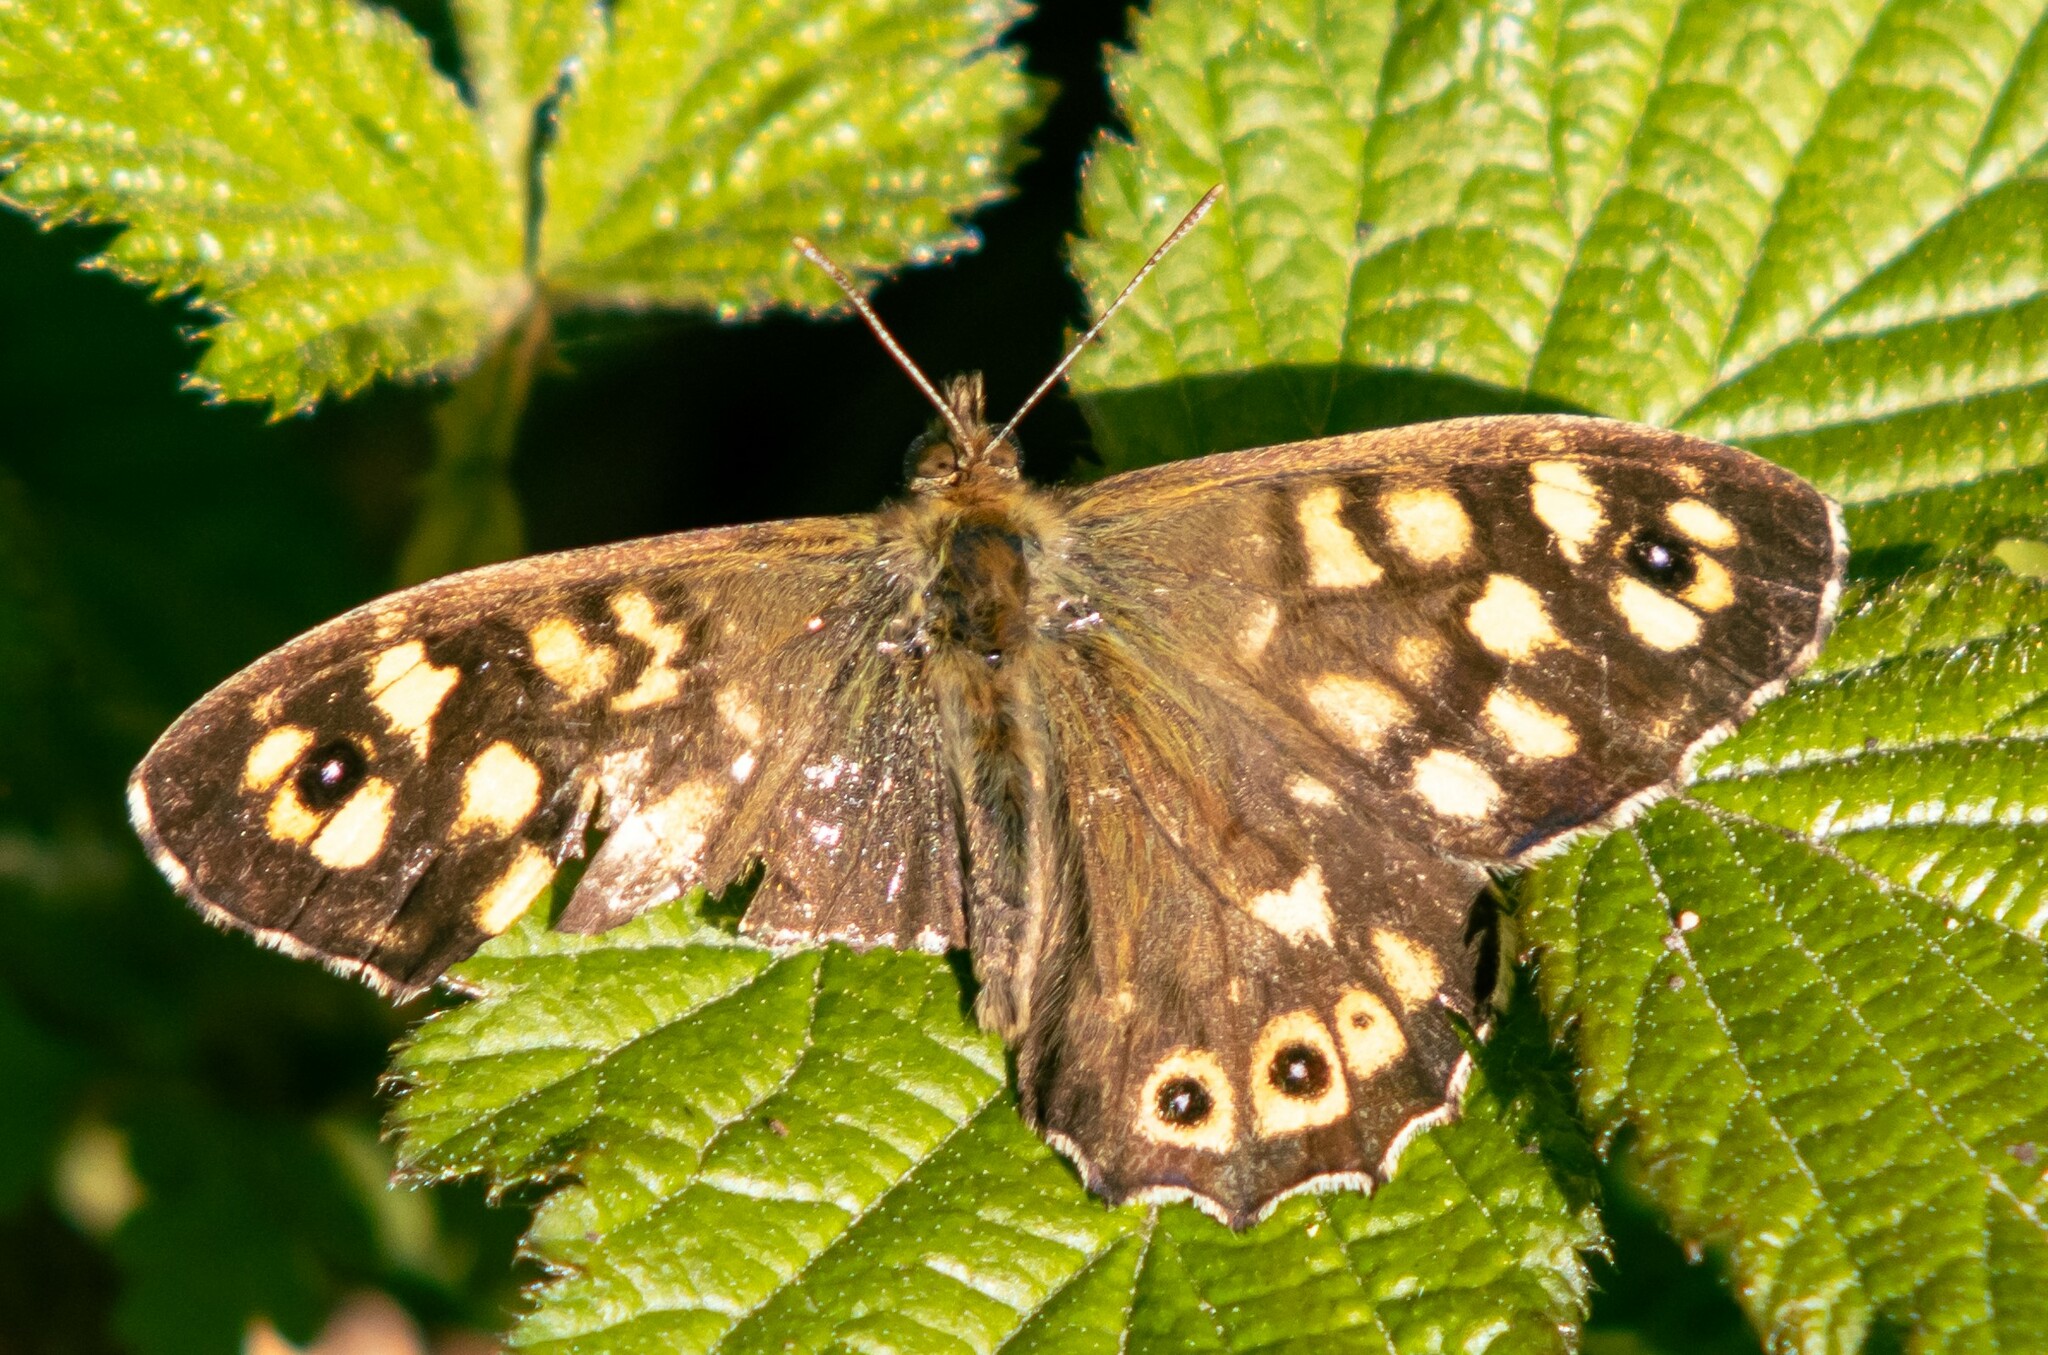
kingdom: Animalia
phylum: Arthropoda
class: Insecta
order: Lepidoptera
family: Nymphalidae
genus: Pararge
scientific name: Pararge aegeria
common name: Speckled wood
